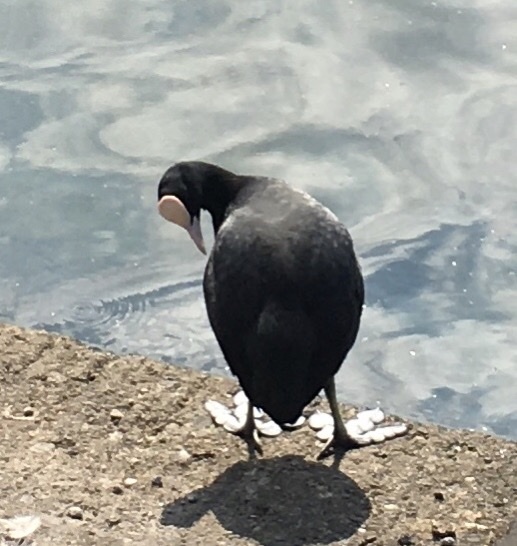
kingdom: Animalia
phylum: Chordata
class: Aves
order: Gruiformes
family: Rallidae
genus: Fulica
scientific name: Fulica atra
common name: Eurasian coot
